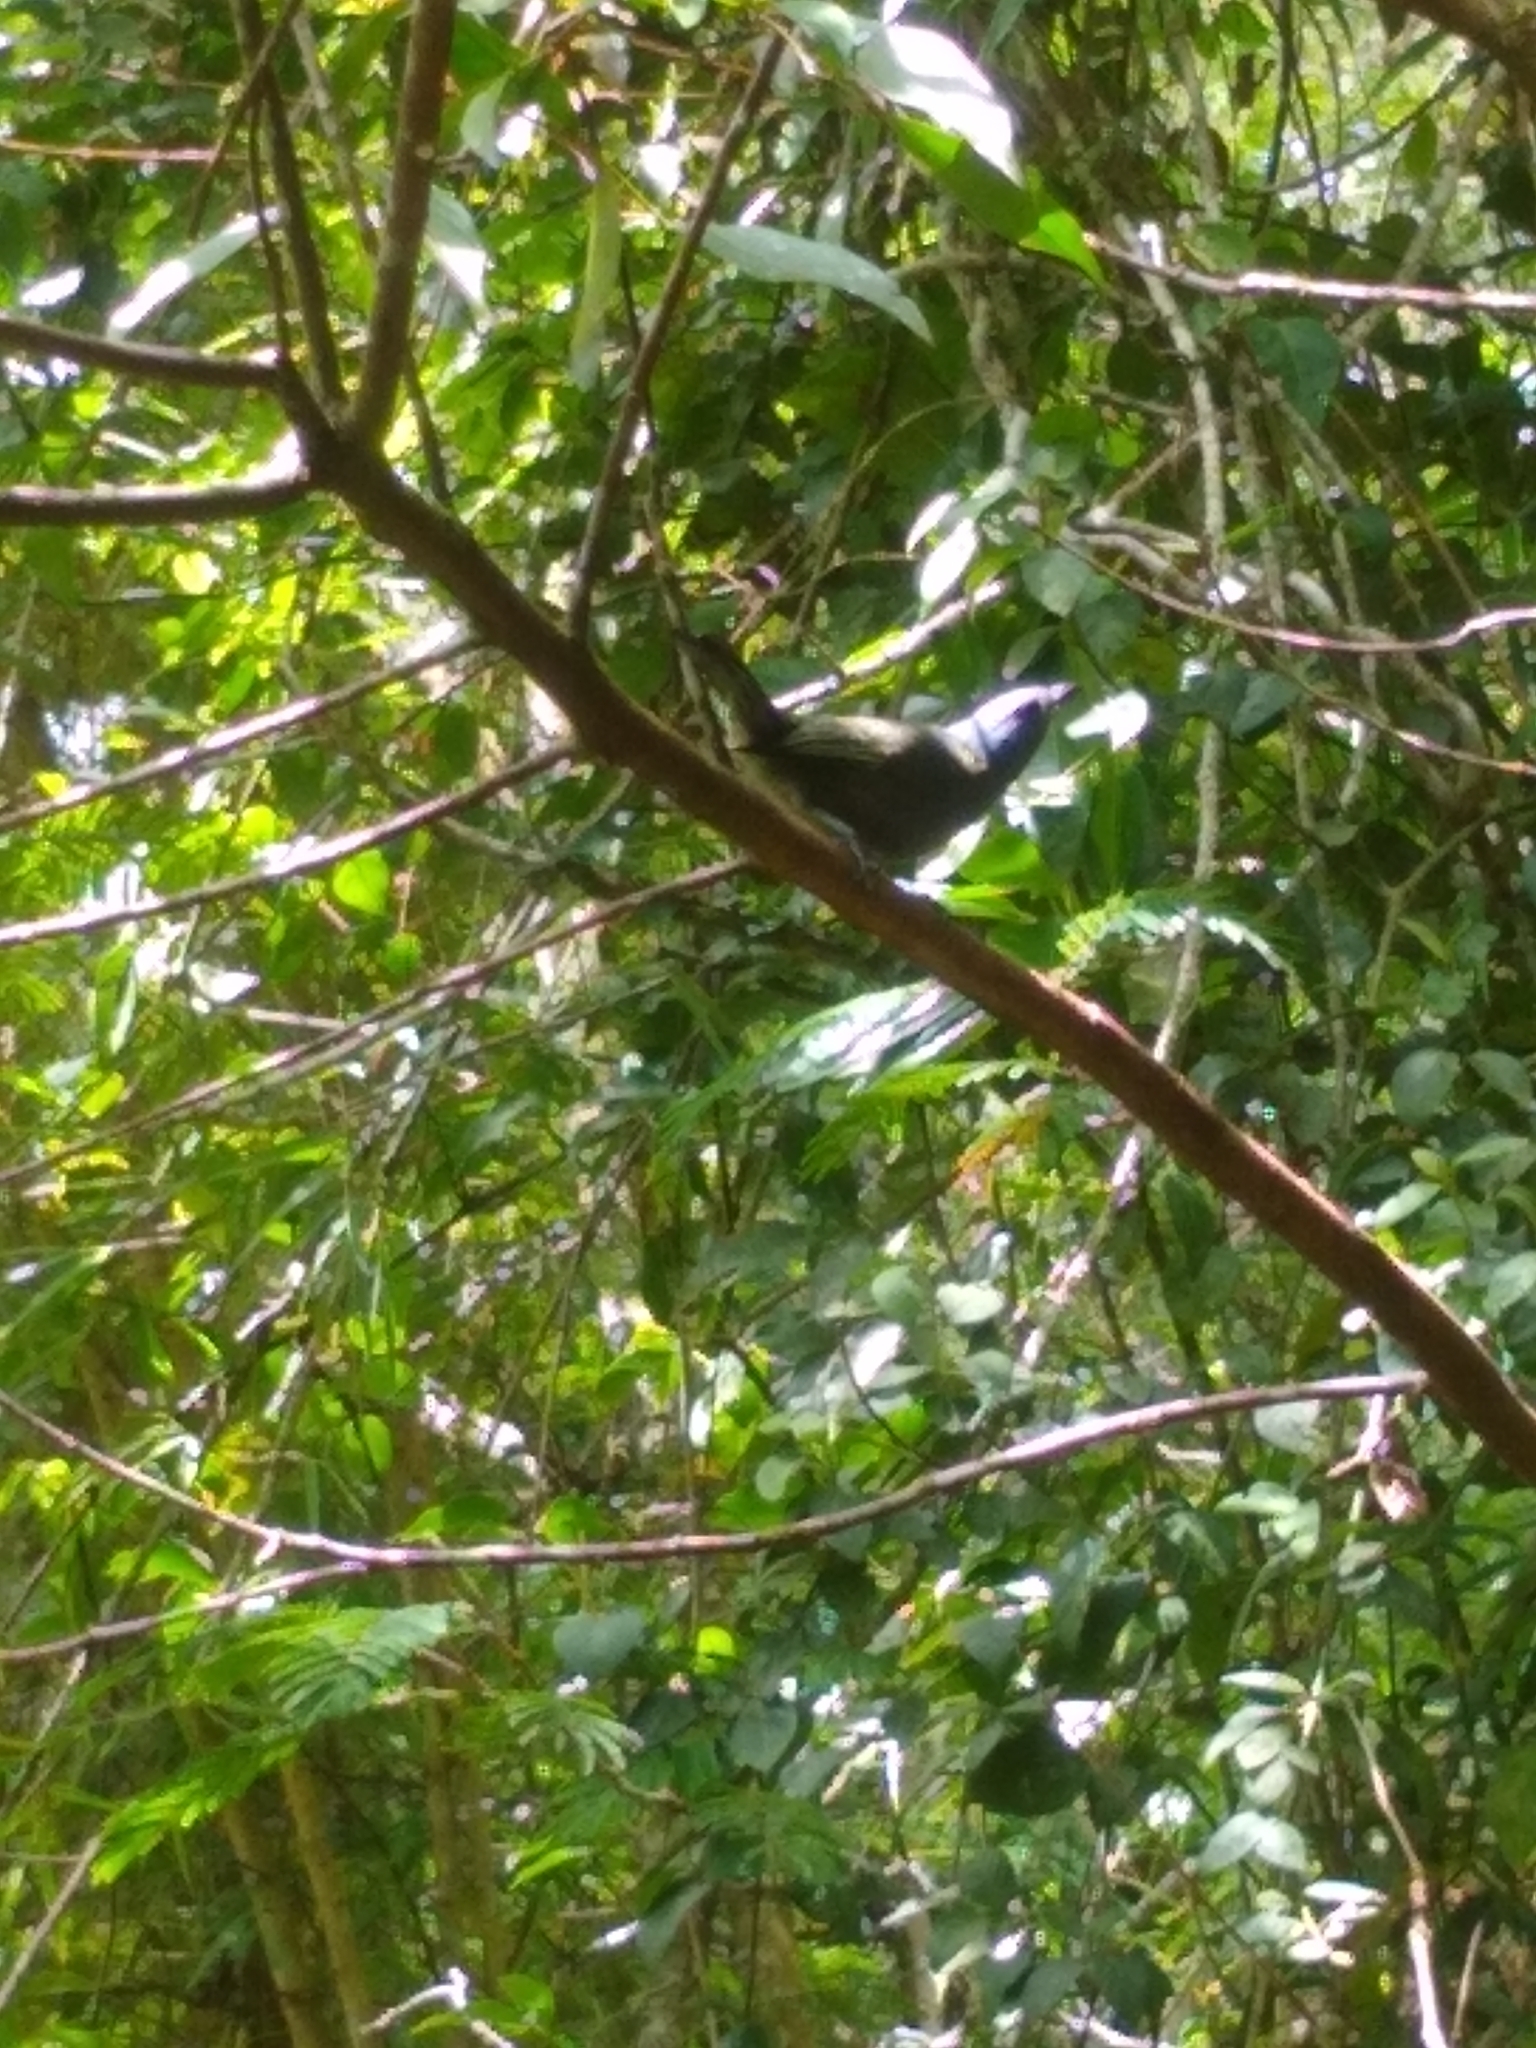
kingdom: Animalia
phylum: Chordata
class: Aves
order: Passeriformes
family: Thraupidae
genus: Thraupis
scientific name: Thraupis ornata
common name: Golden-chevroned tanager
